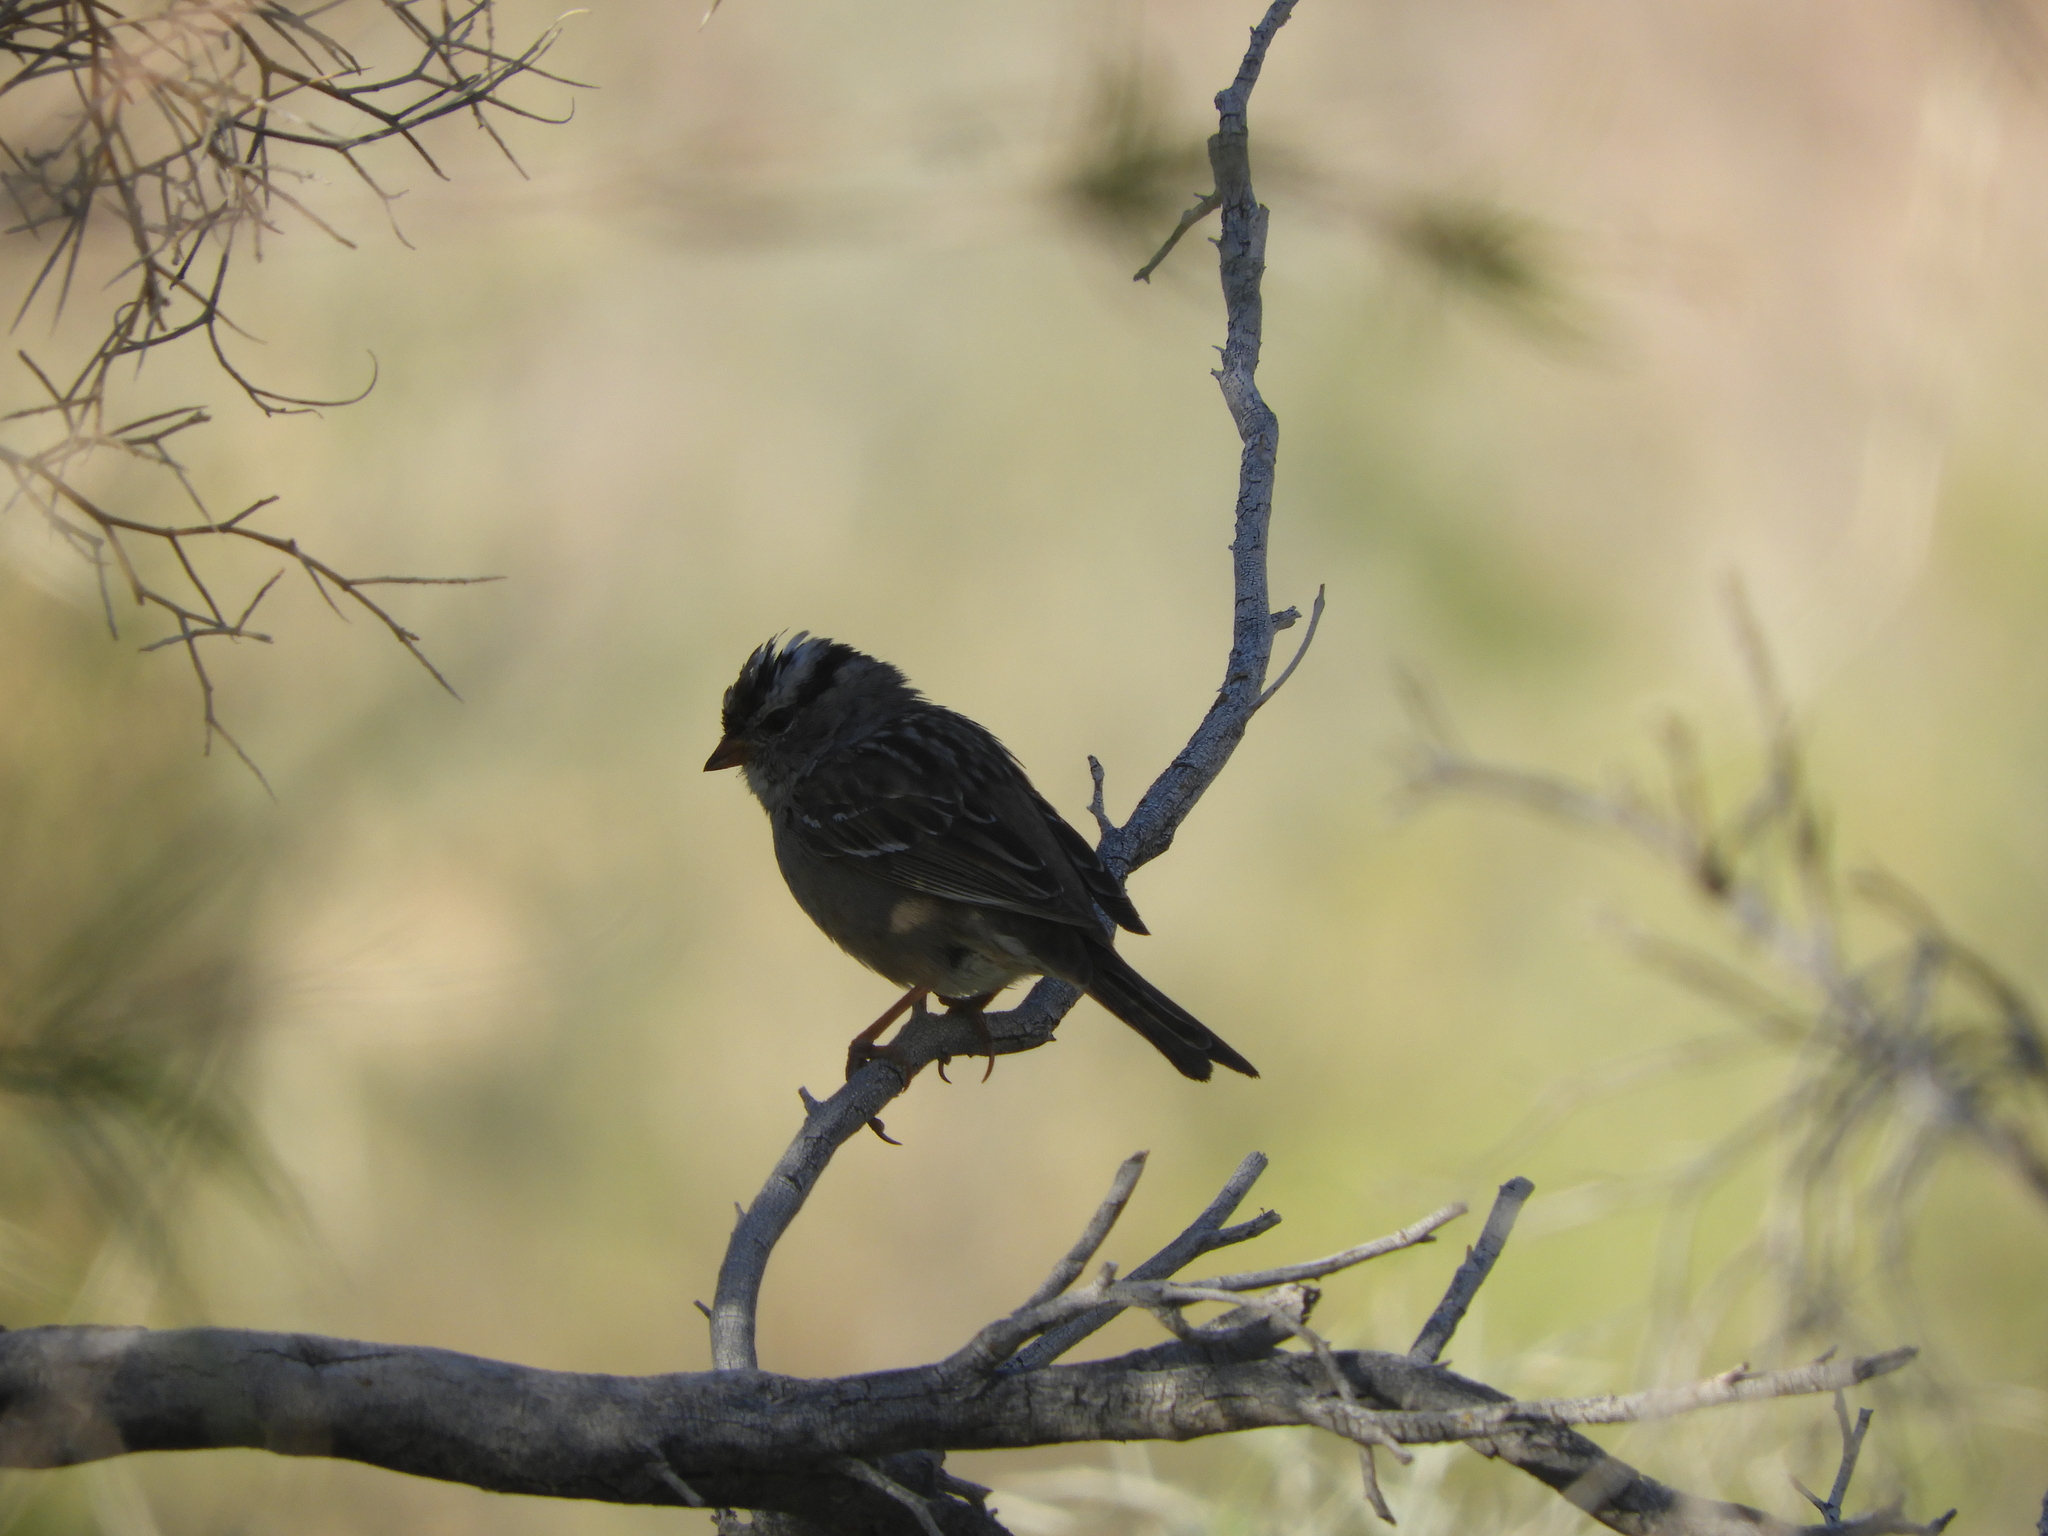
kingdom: Animalia
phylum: Chordata
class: Aves
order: Passeriformes
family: Passerellidae
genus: Zonotrichia
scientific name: Zonotrichia leucophrys
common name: White-crowned sparrow
